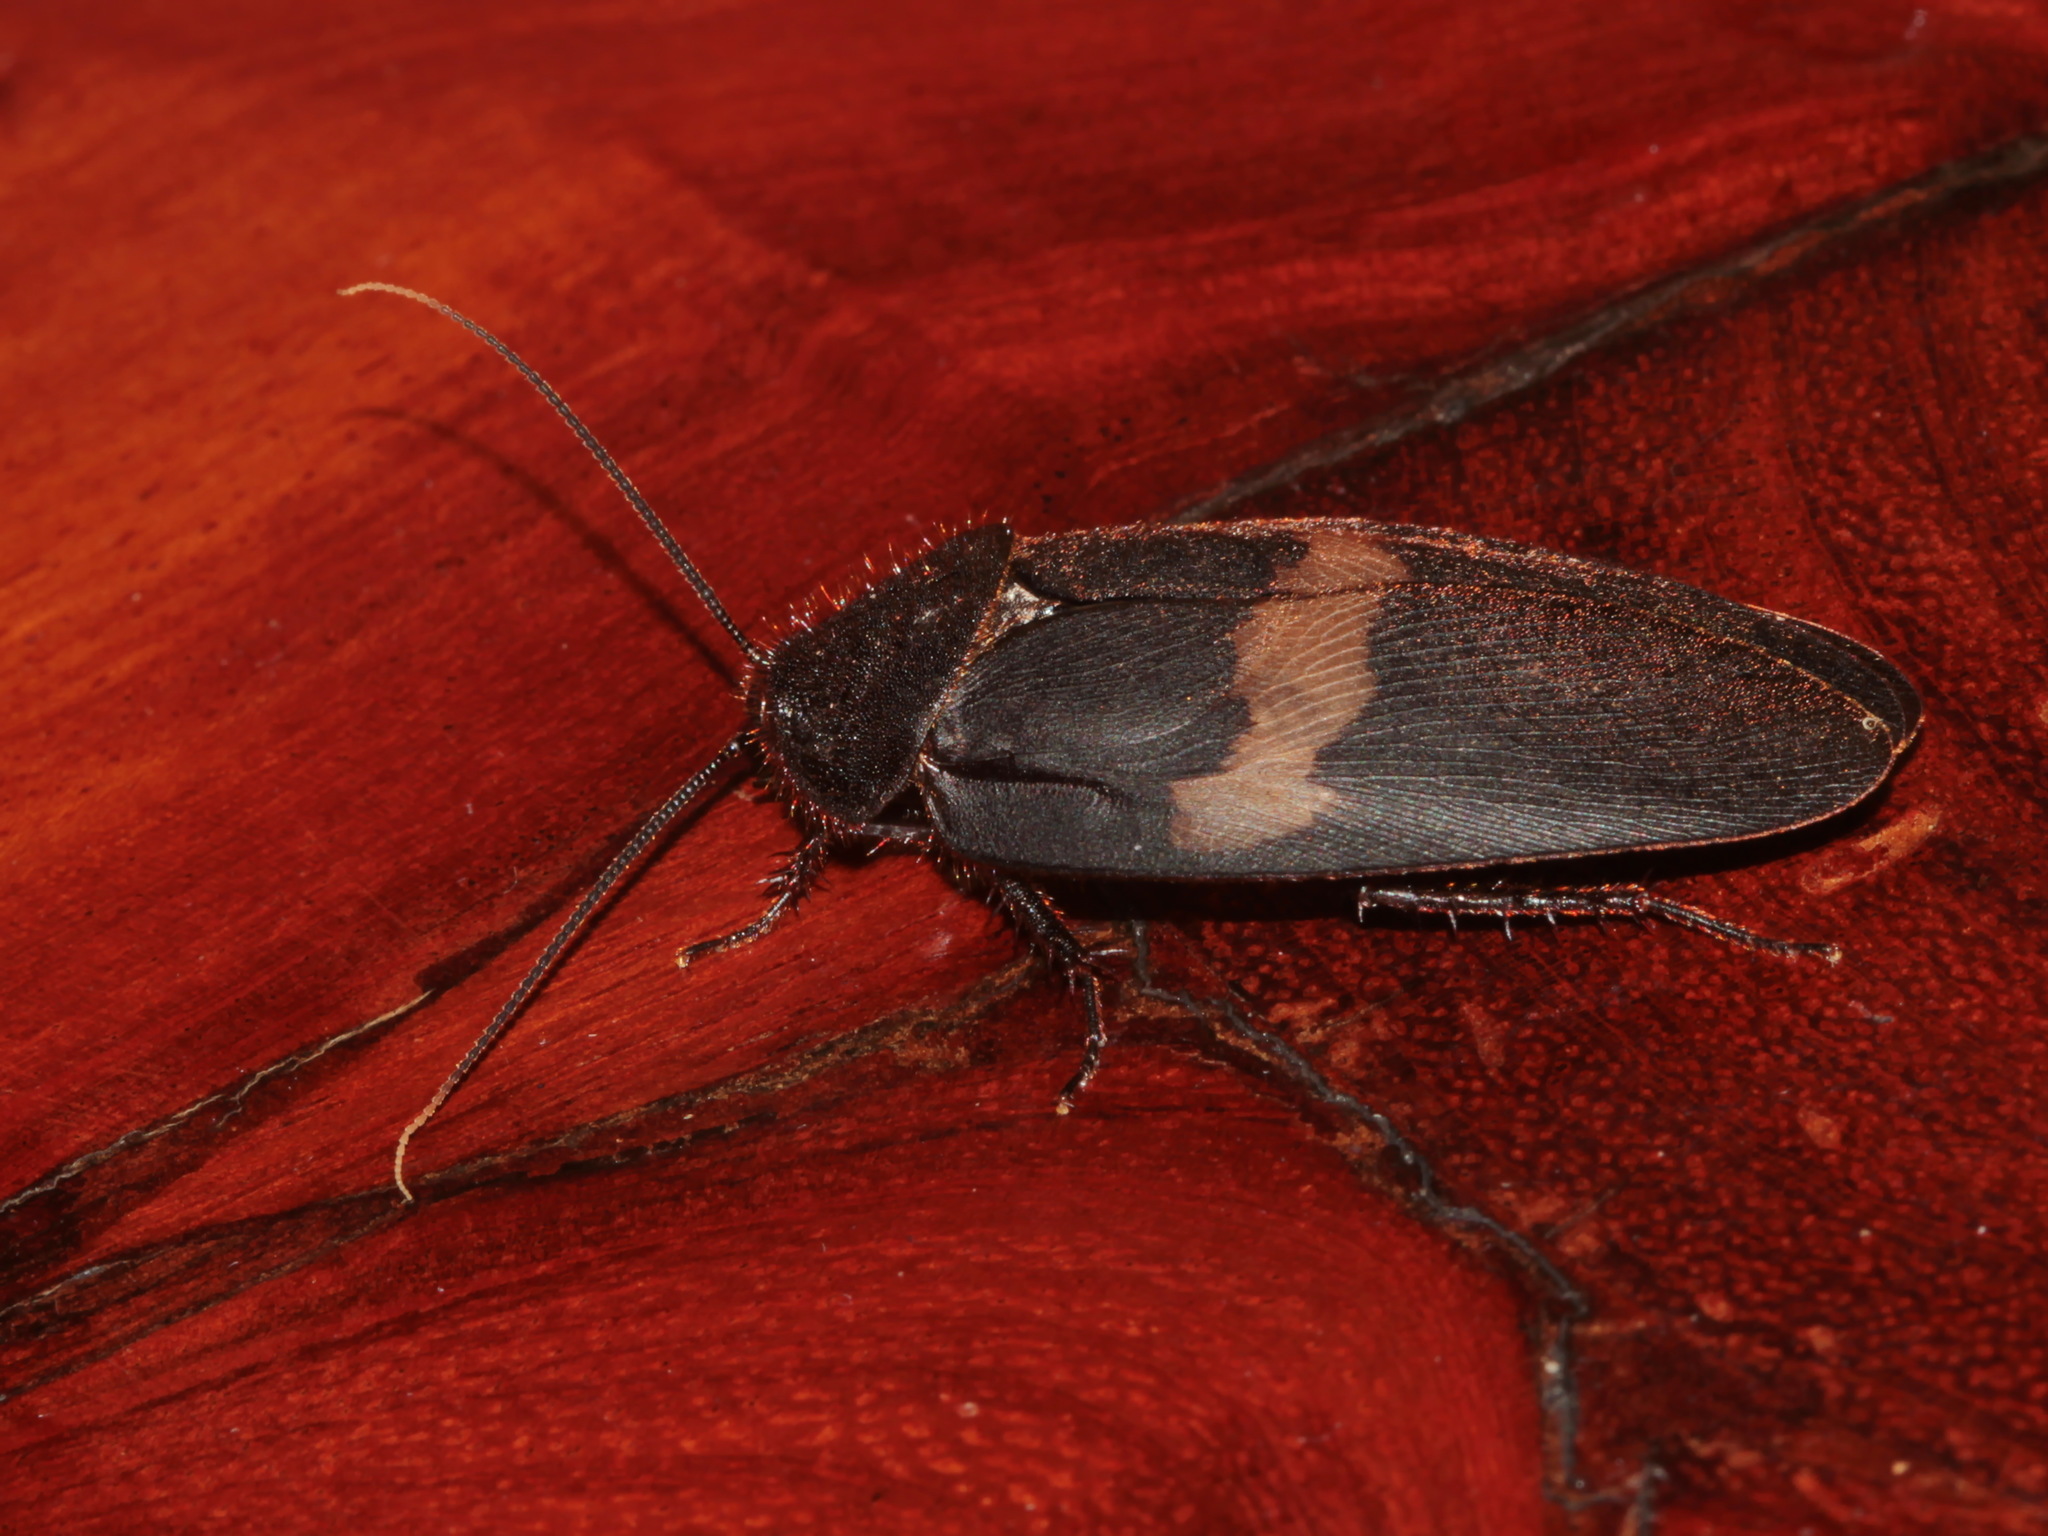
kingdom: Animalia
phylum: Arthropoda
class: Insecta
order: Blattodea
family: Corydiidae
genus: Ergaula
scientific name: Ergaula capucina
